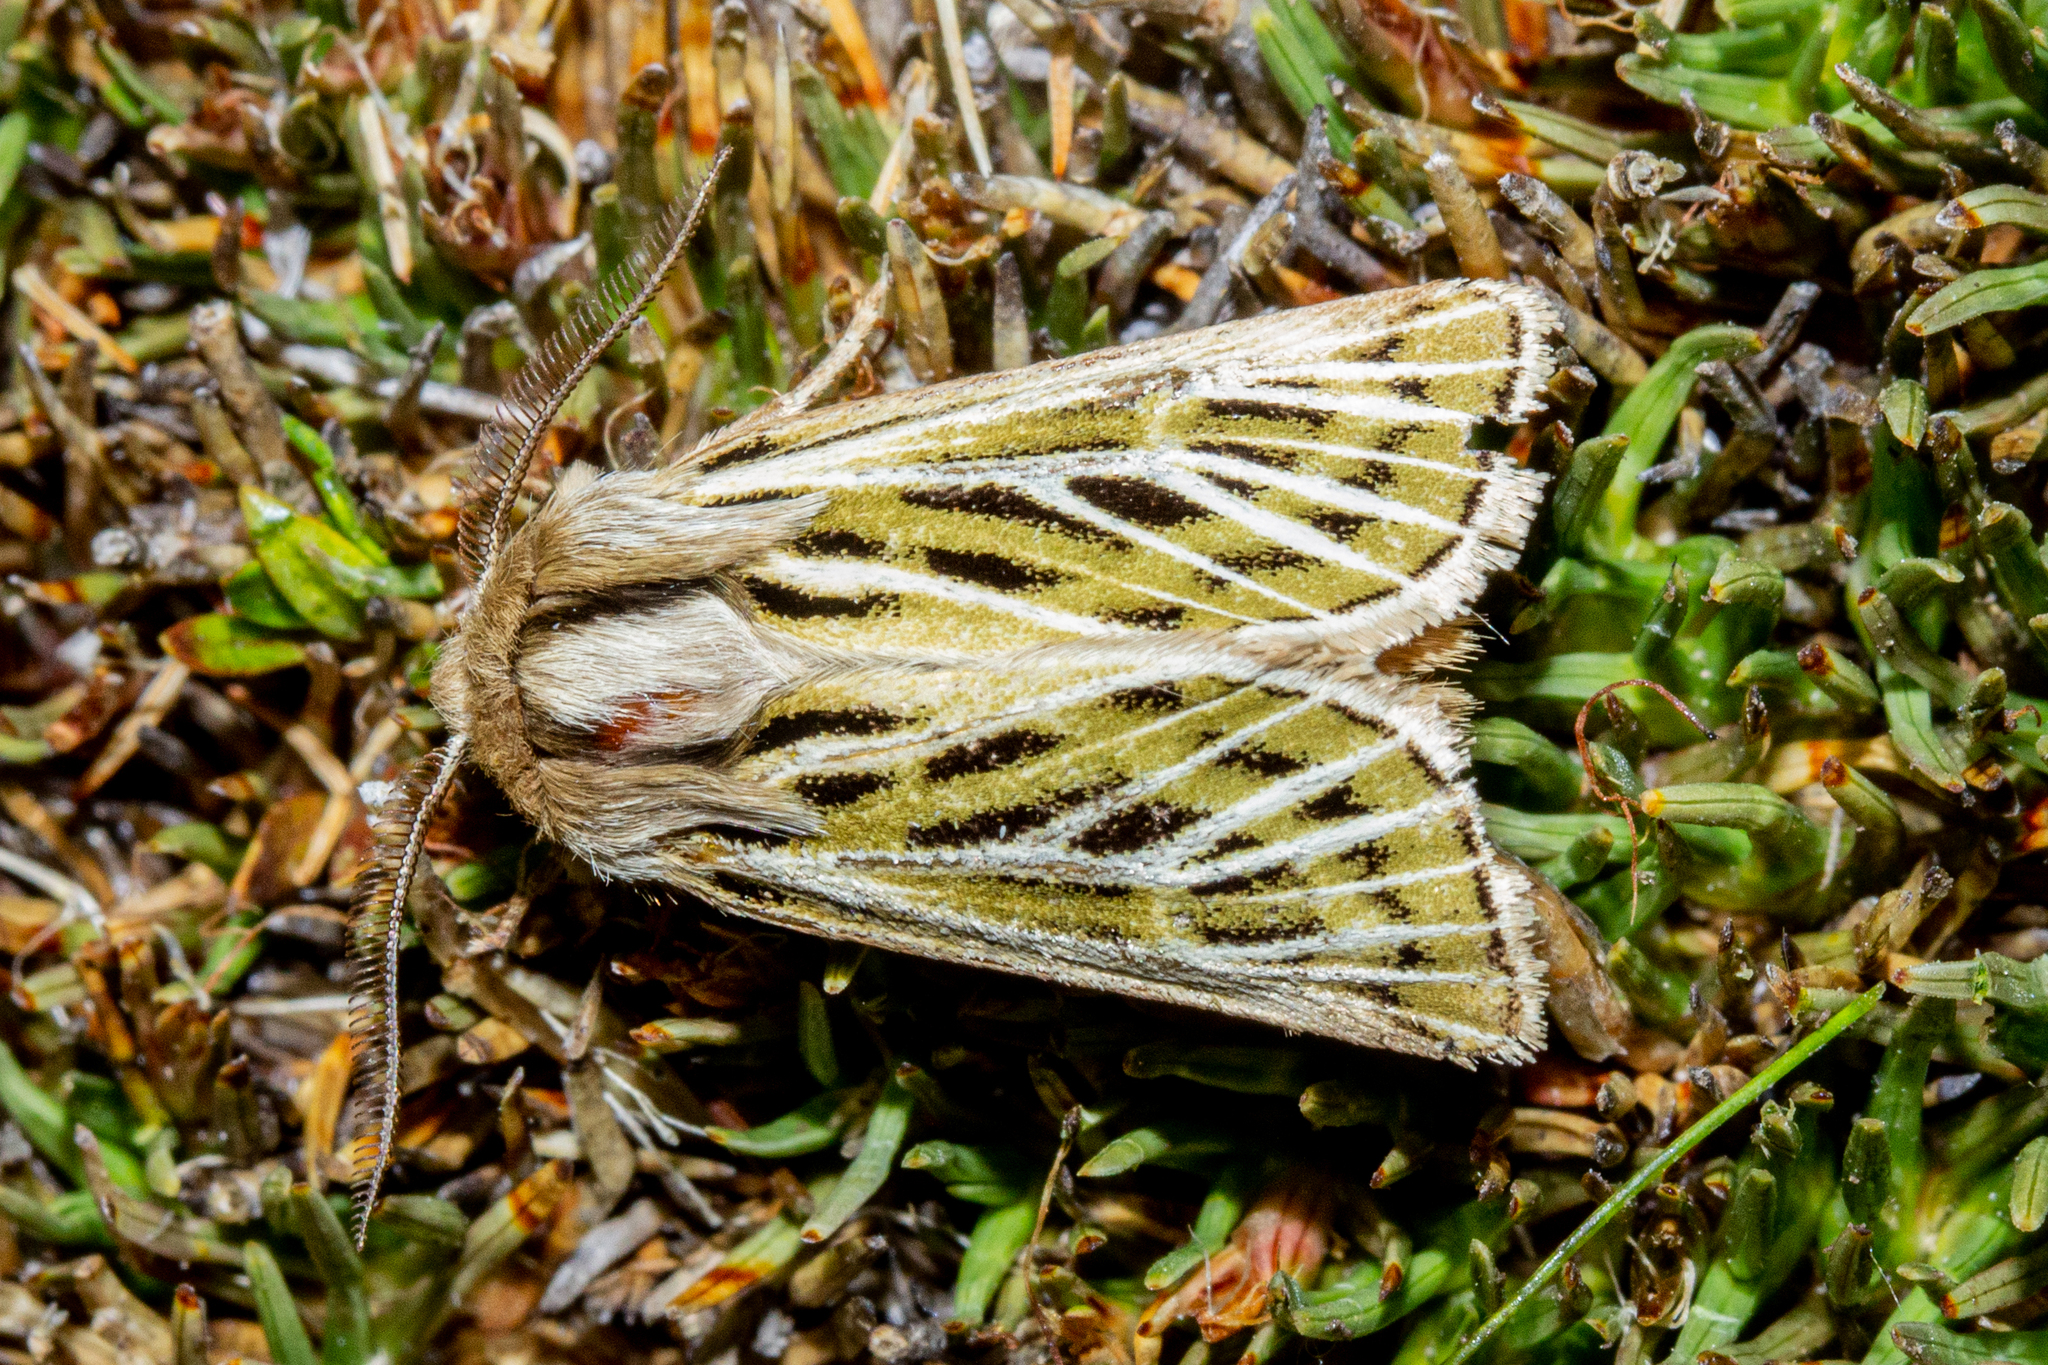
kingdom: Animalia
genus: Nivetica
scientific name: Nivetica
